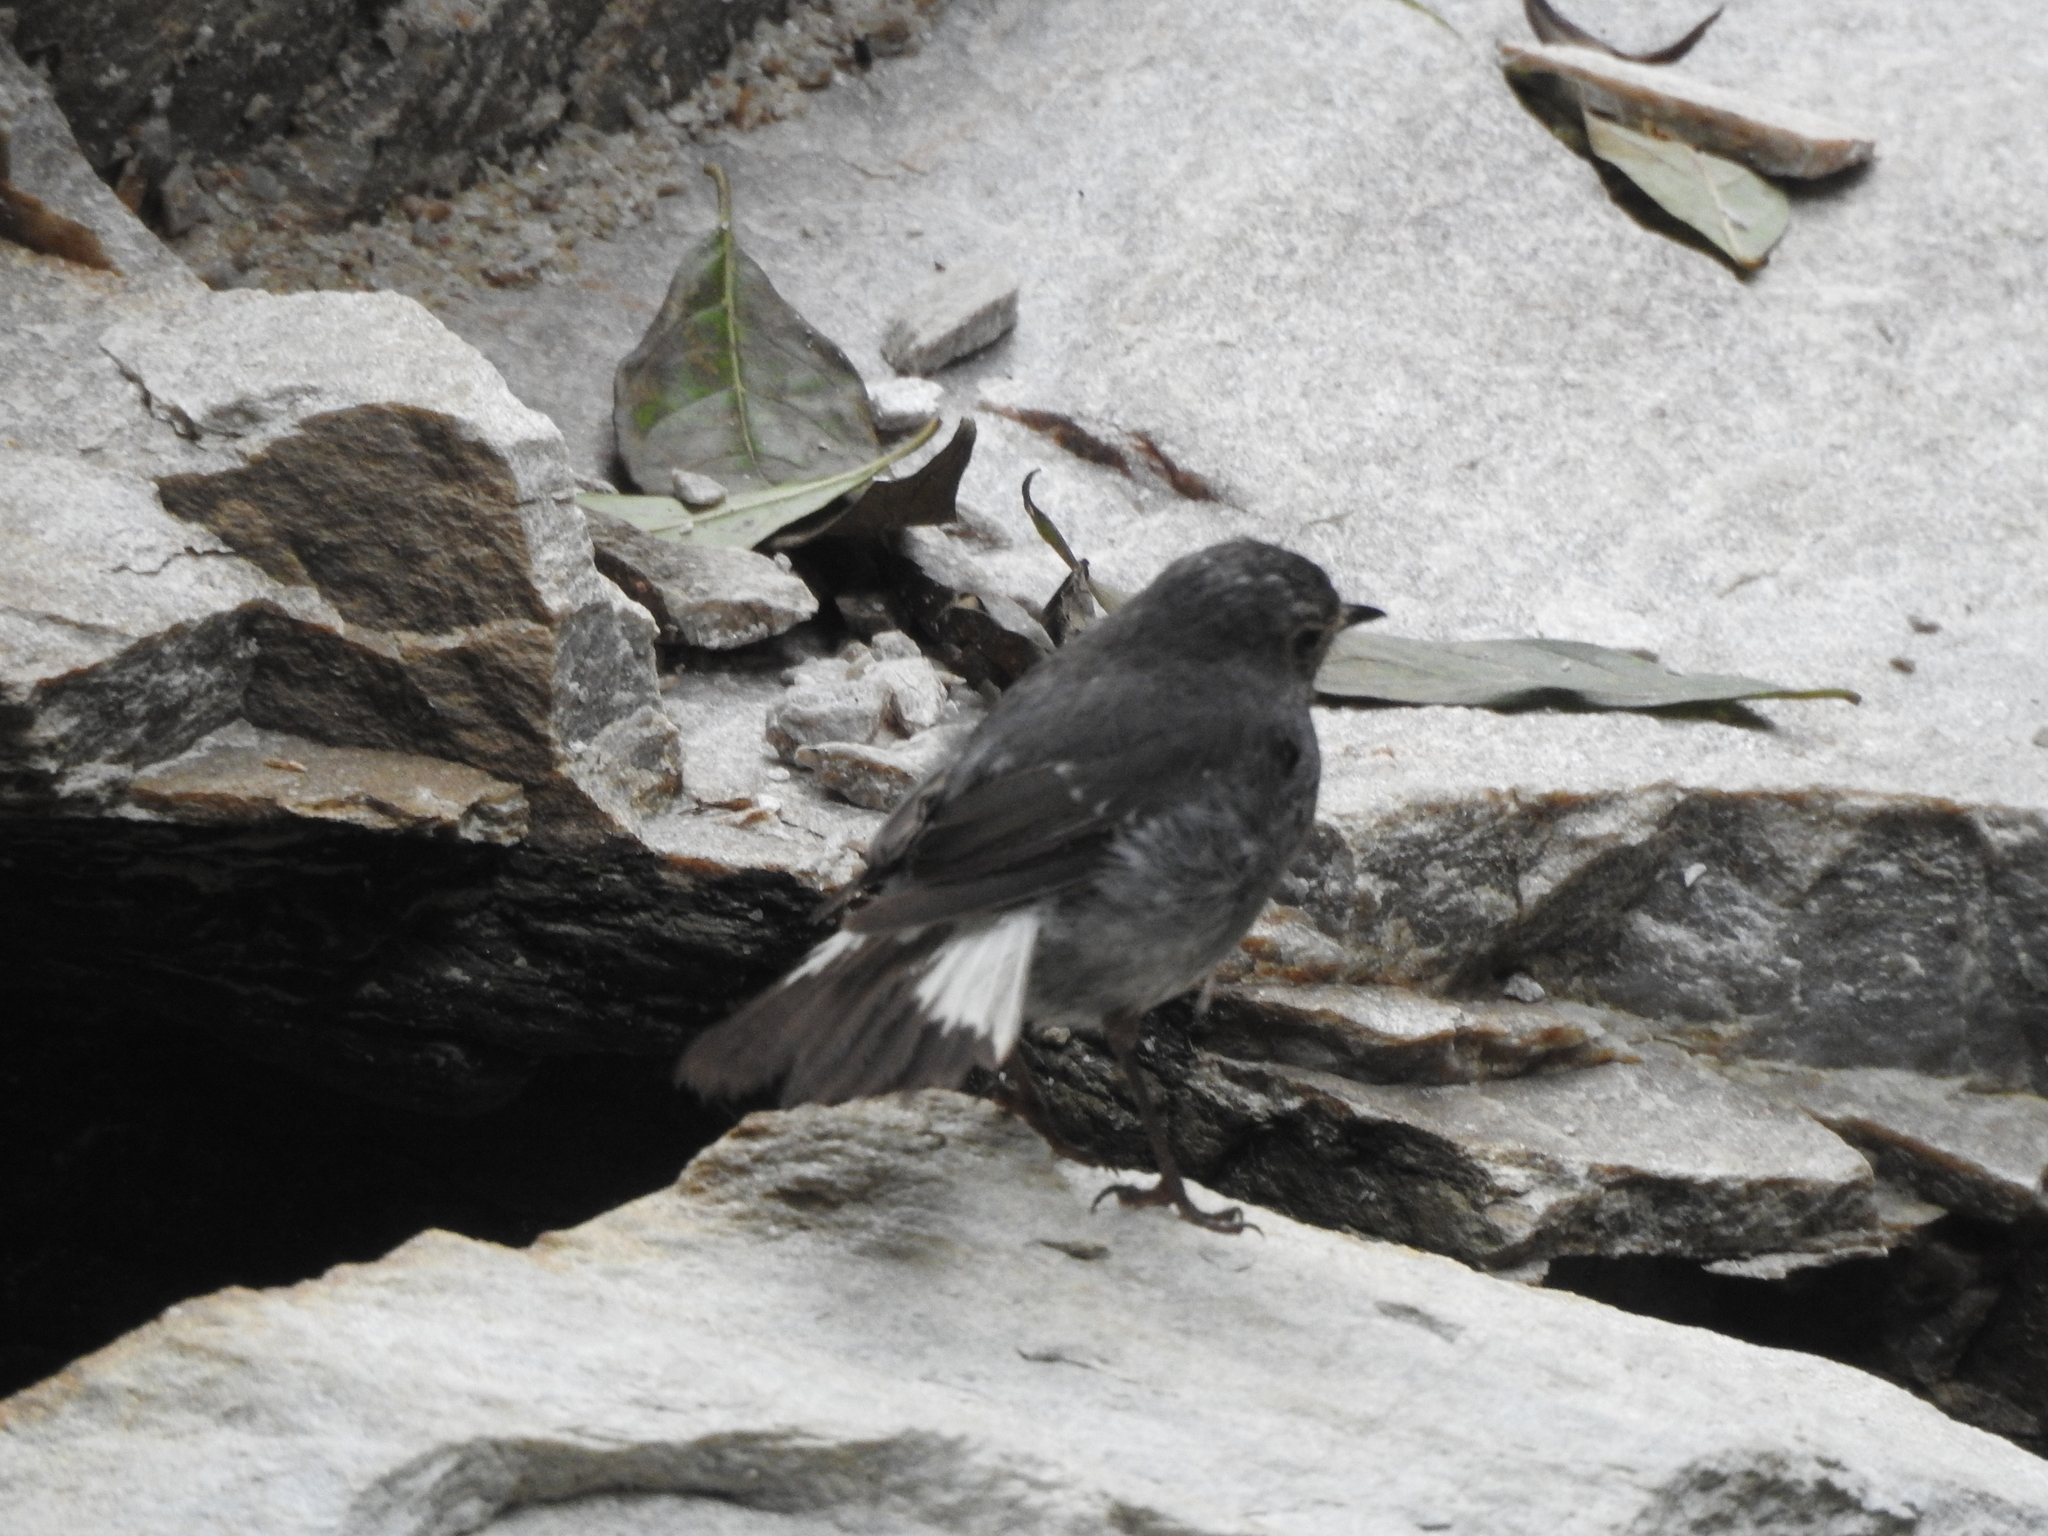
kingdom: Animalia
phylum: Chordata
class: Aves
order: Passeriformes
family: Muscicapidae
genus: Phoenicurus
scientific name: Phoenicurus fuliginosus
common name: Plumbeous water redstart
